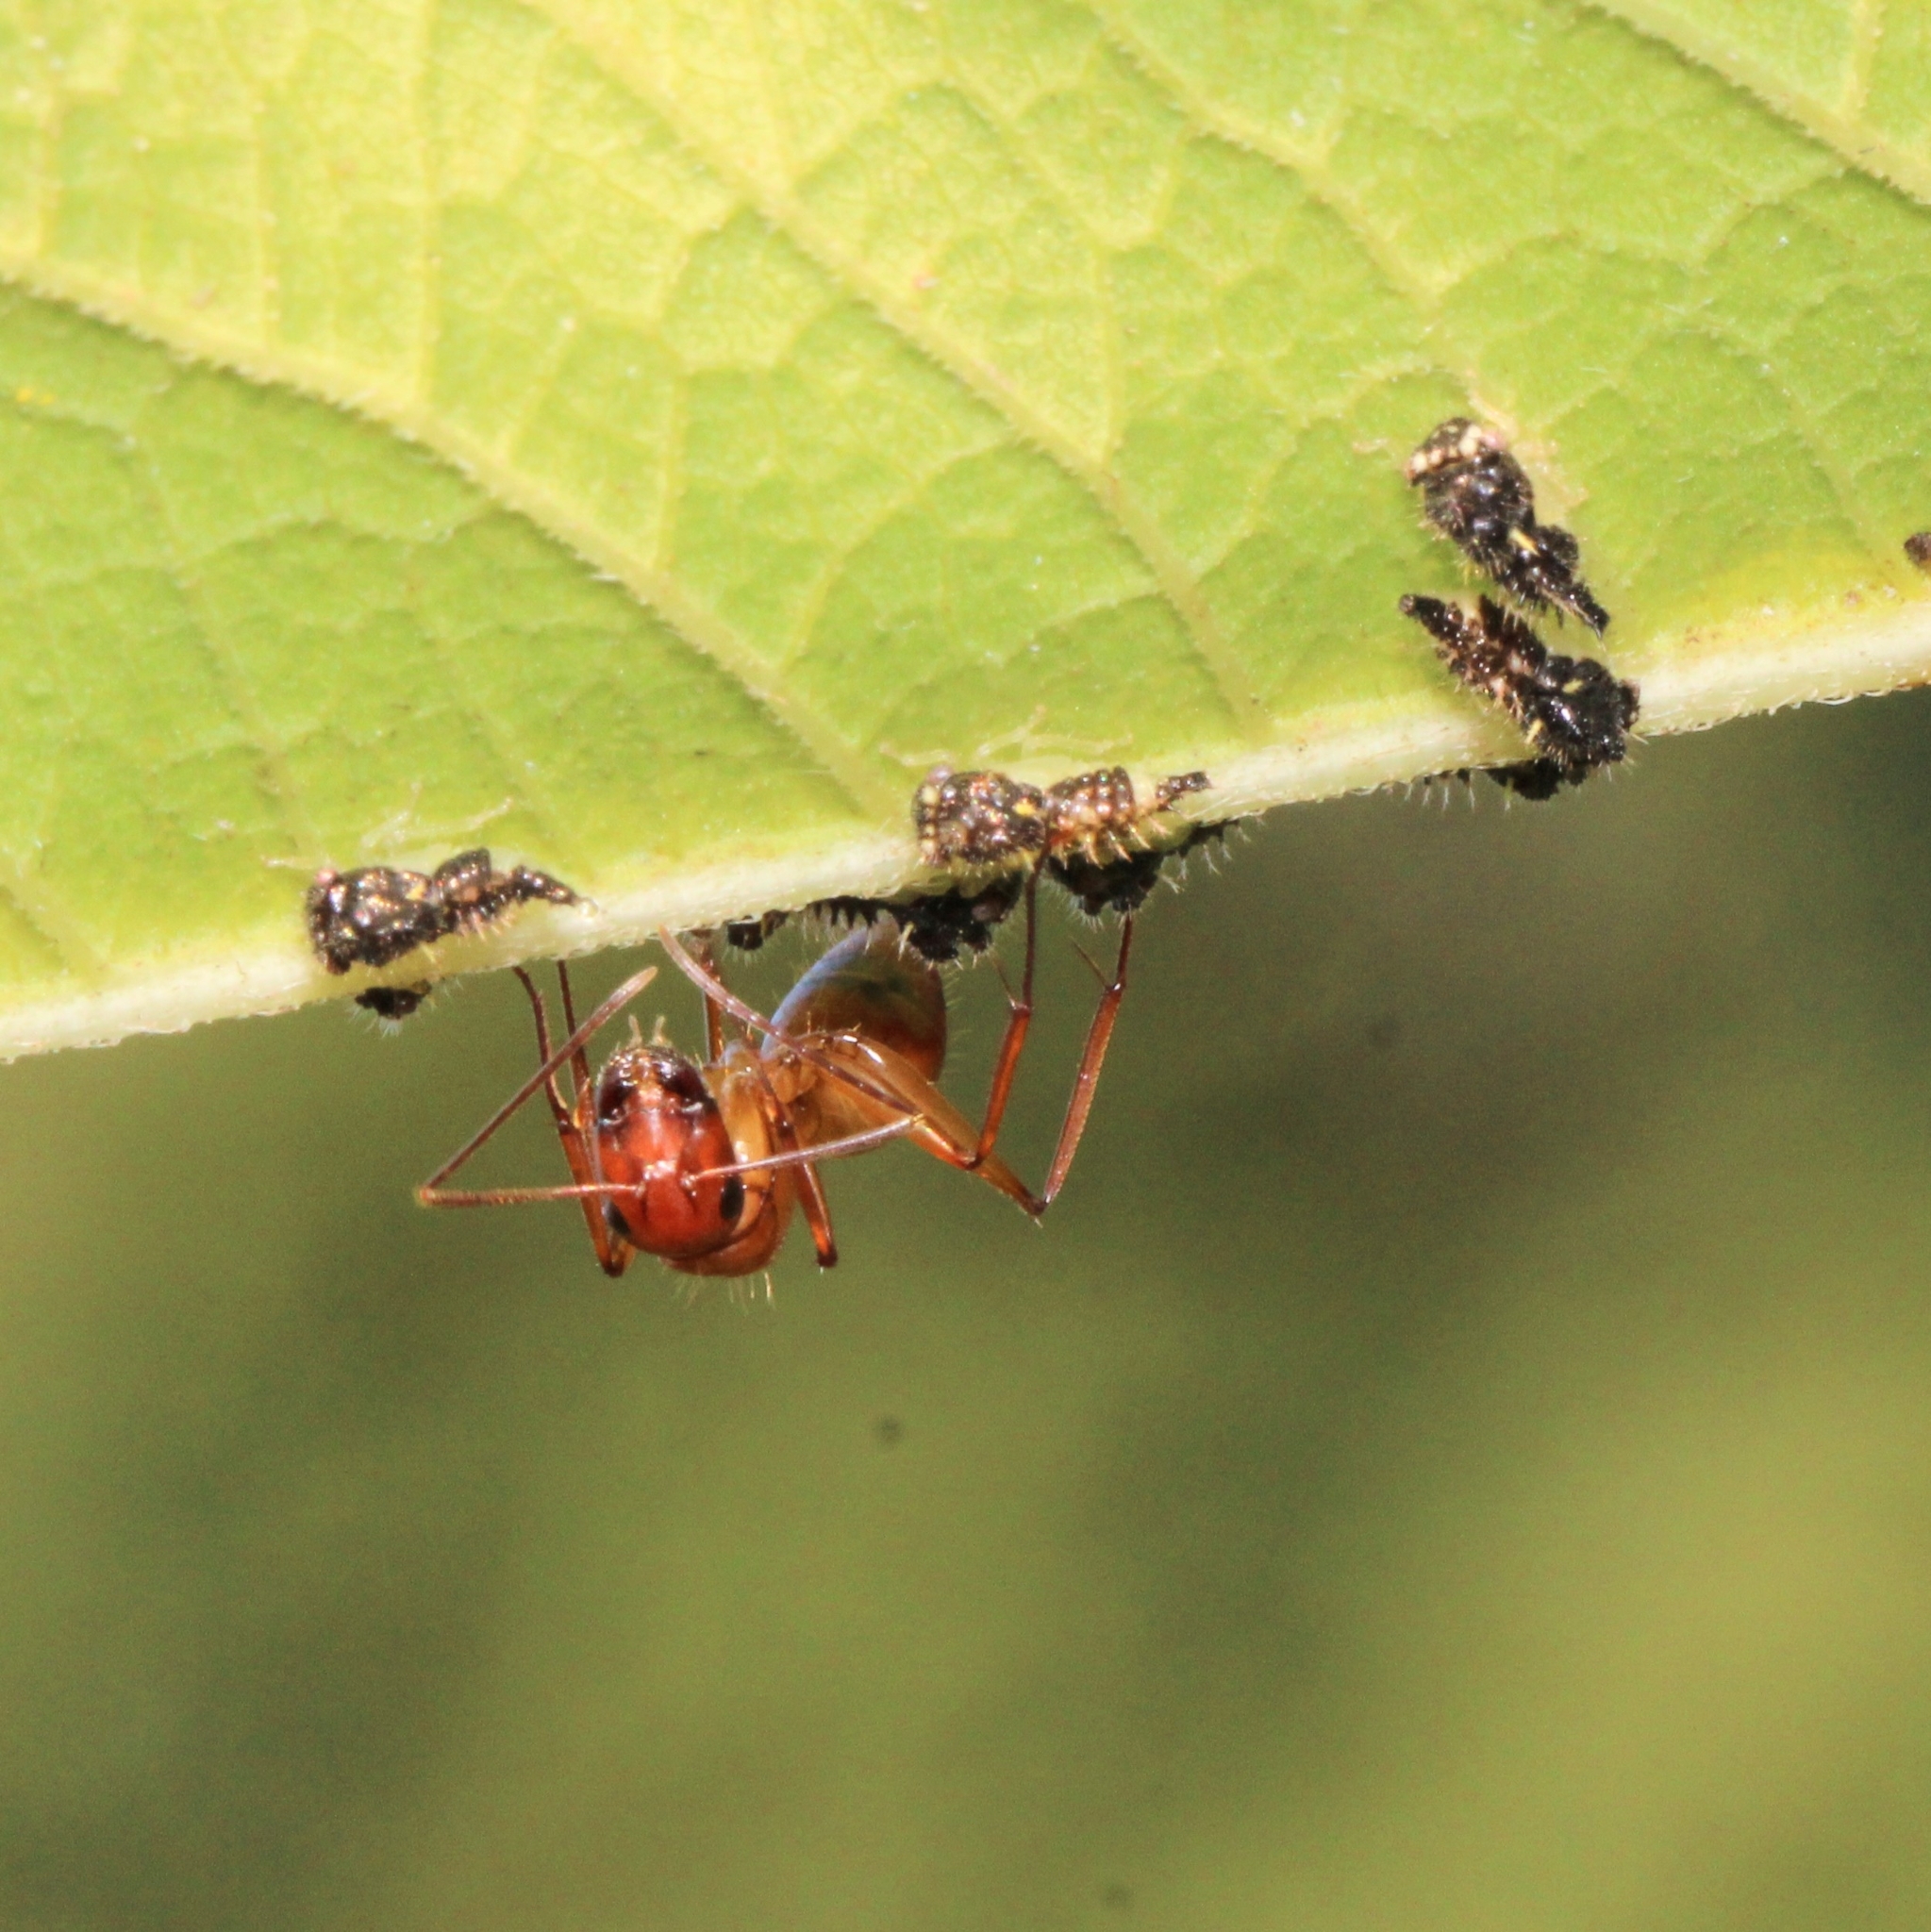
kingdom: Animalia
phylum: Arthropoda
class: Insecta
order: Hemiptera
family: Membracidae
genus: Entylia
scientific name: Entylia carinata
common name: Keeled treehopper
